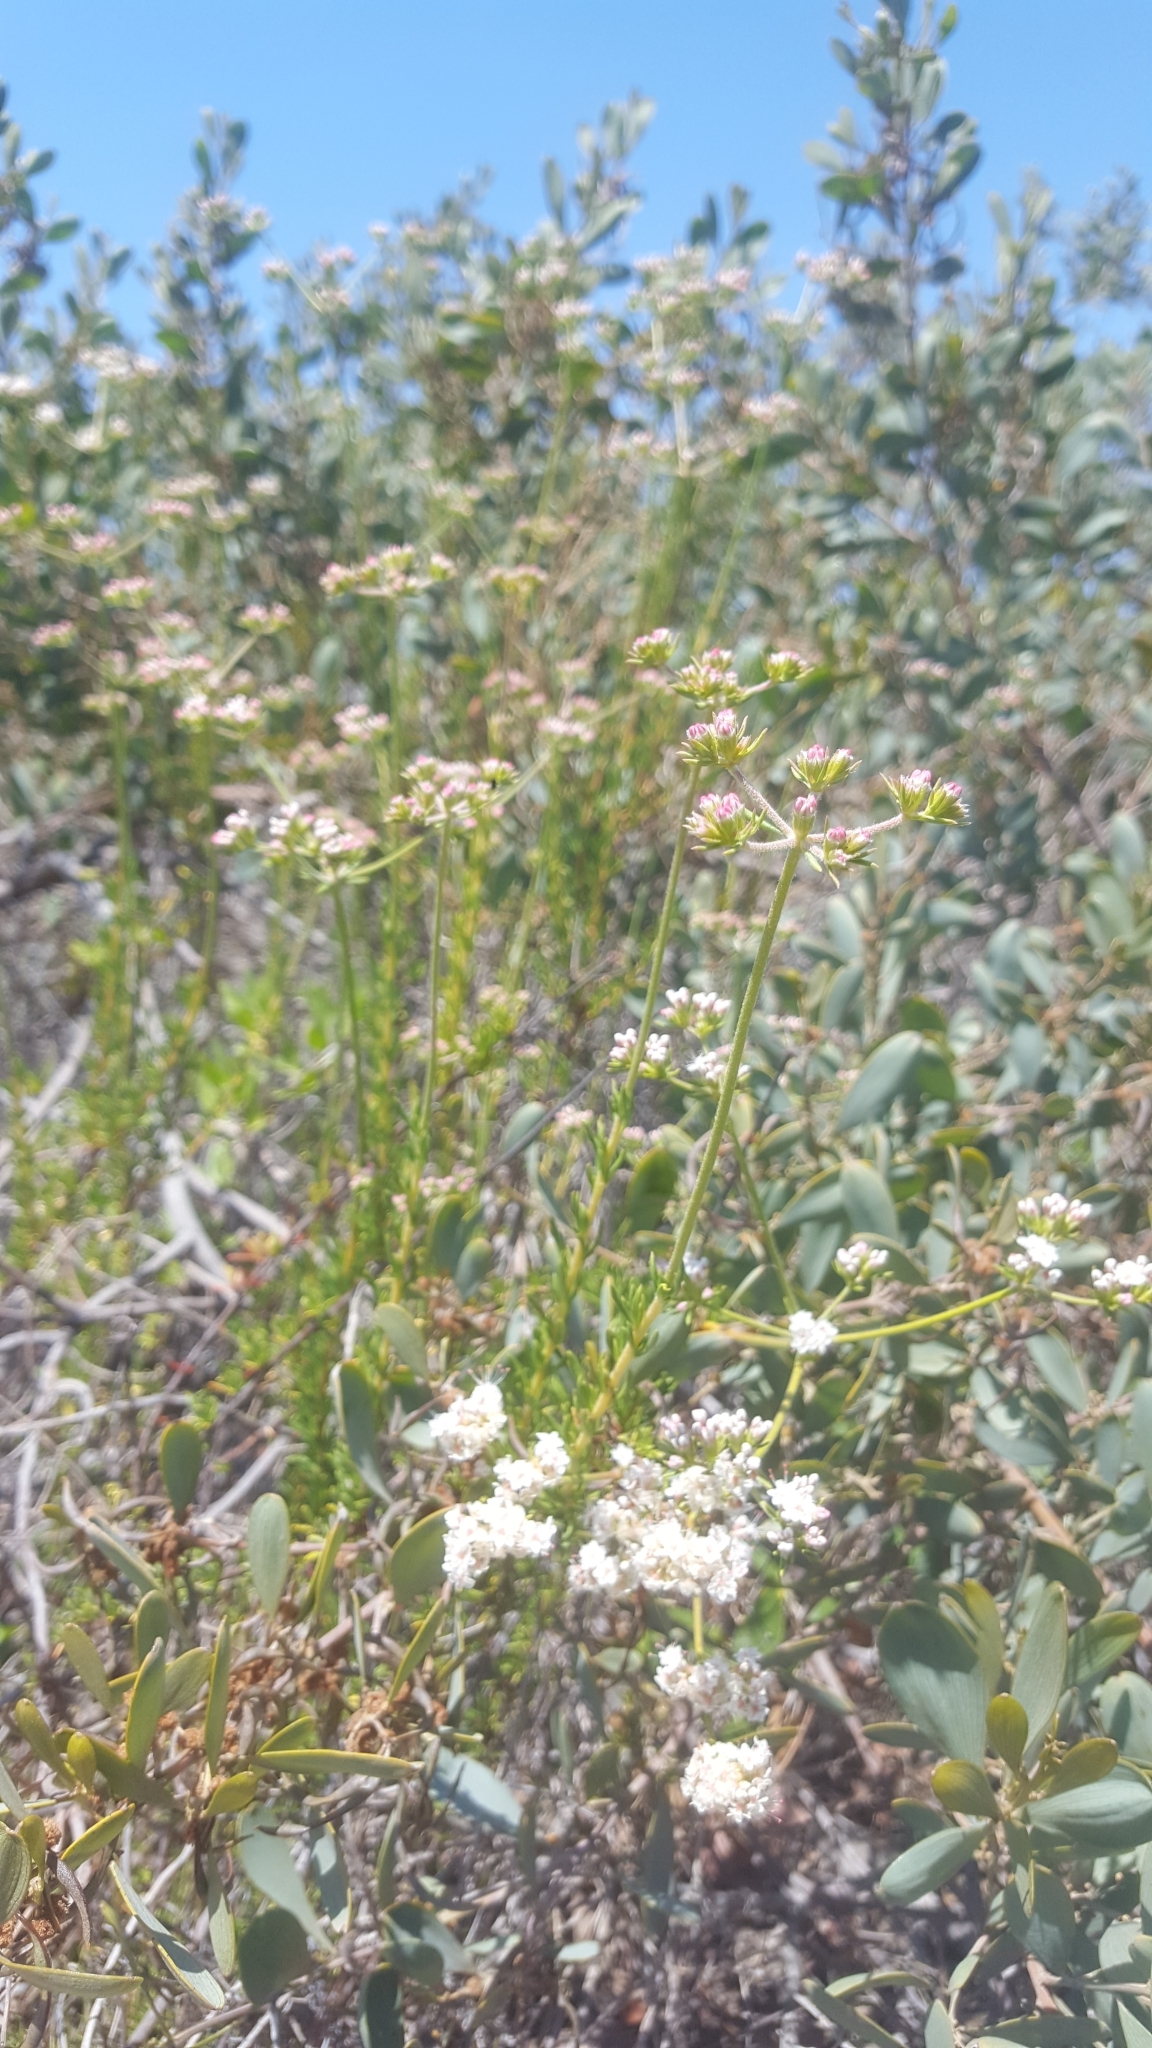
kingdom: Plantae
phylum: Tracheophyta
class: Magnoliopsida
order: Caryophyllales
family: Polygonaceae
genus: Eriogonum
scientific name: Eriogonum fasciculatum
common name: California wild buckwheat
